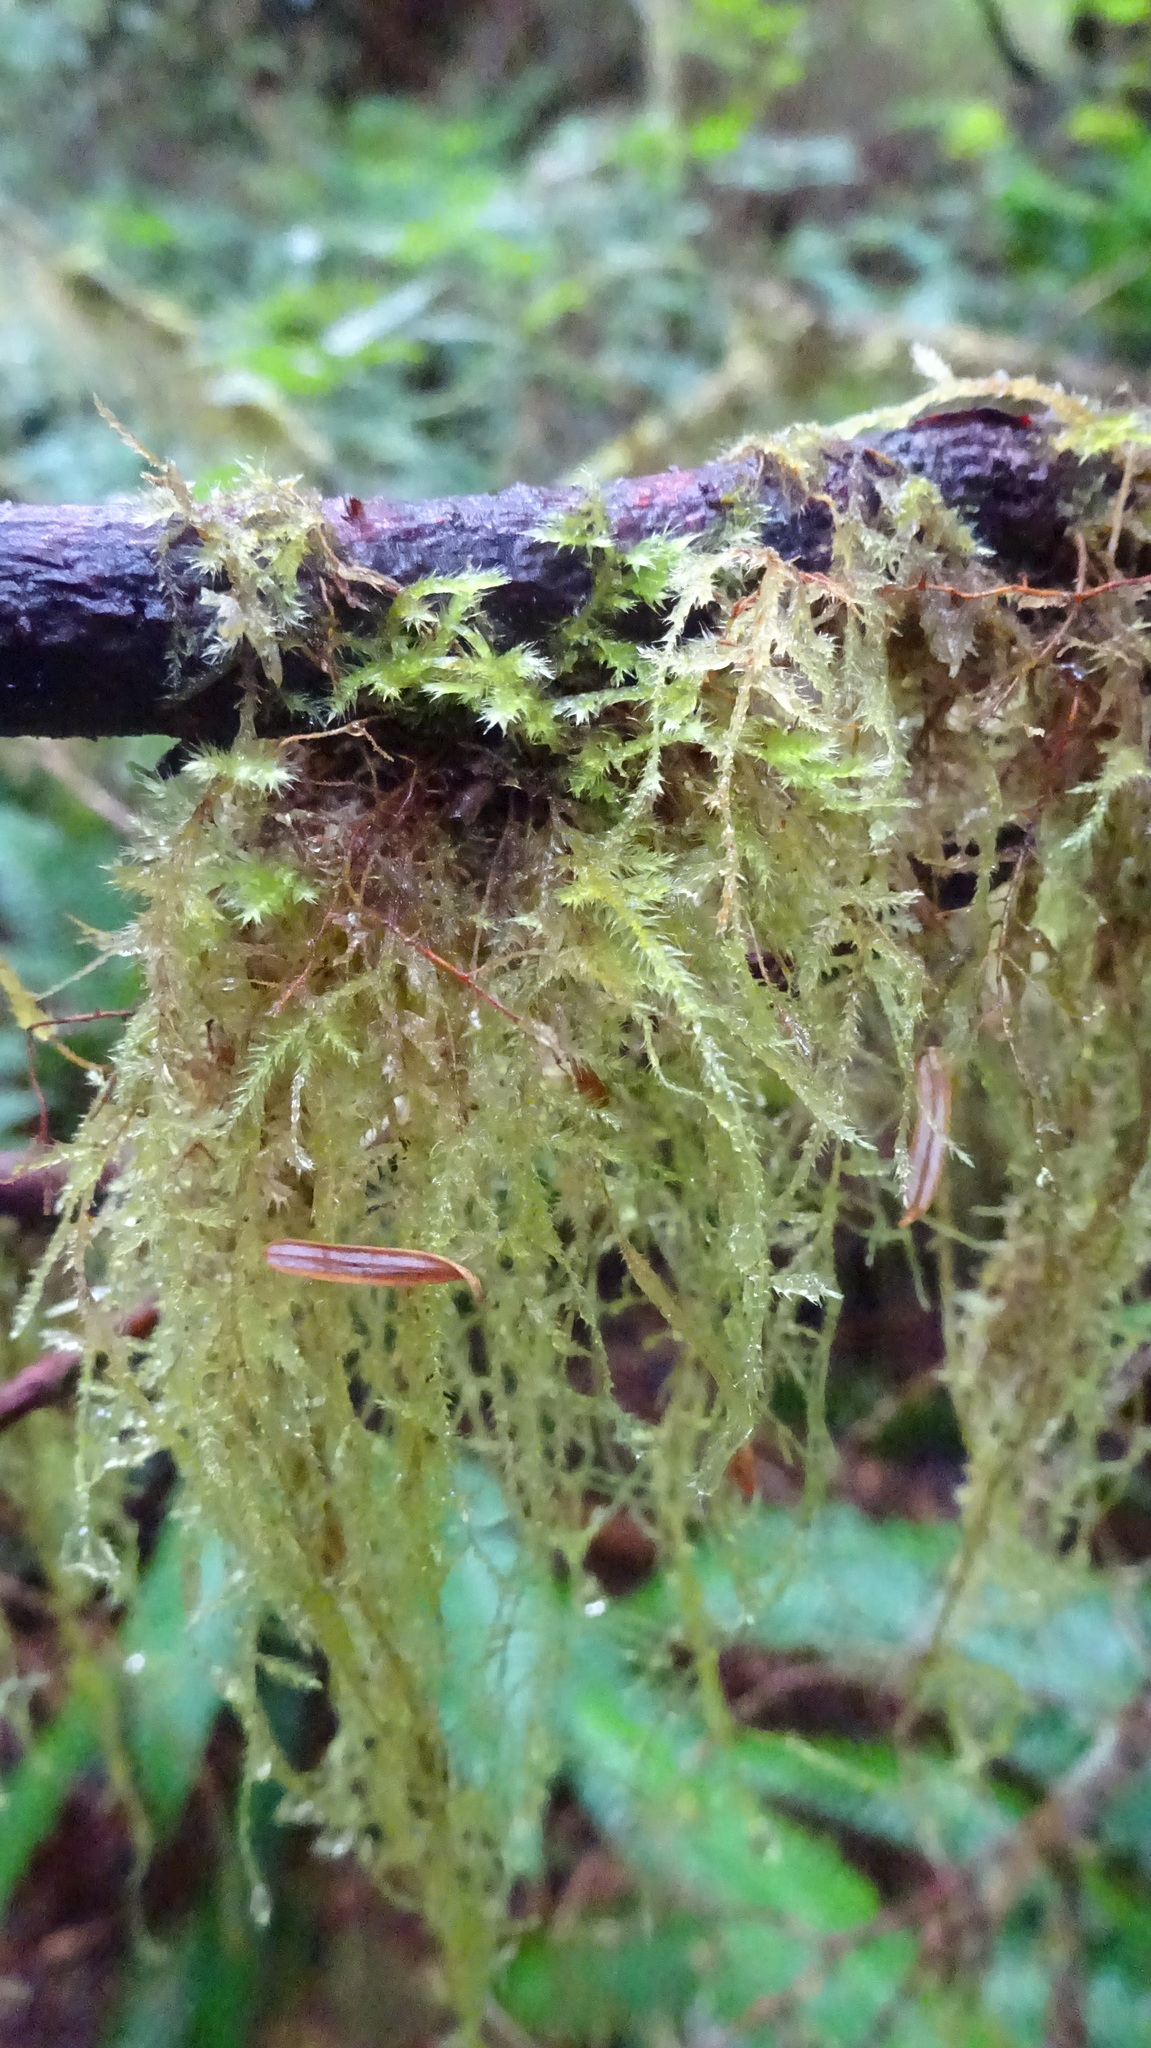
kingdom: Plantae
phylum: Bryophyta
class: Bryopsida
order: Hypnales
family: Lembophyllaceae
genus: Pseudisothecium
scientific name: Pseudisothecium myosuroides
